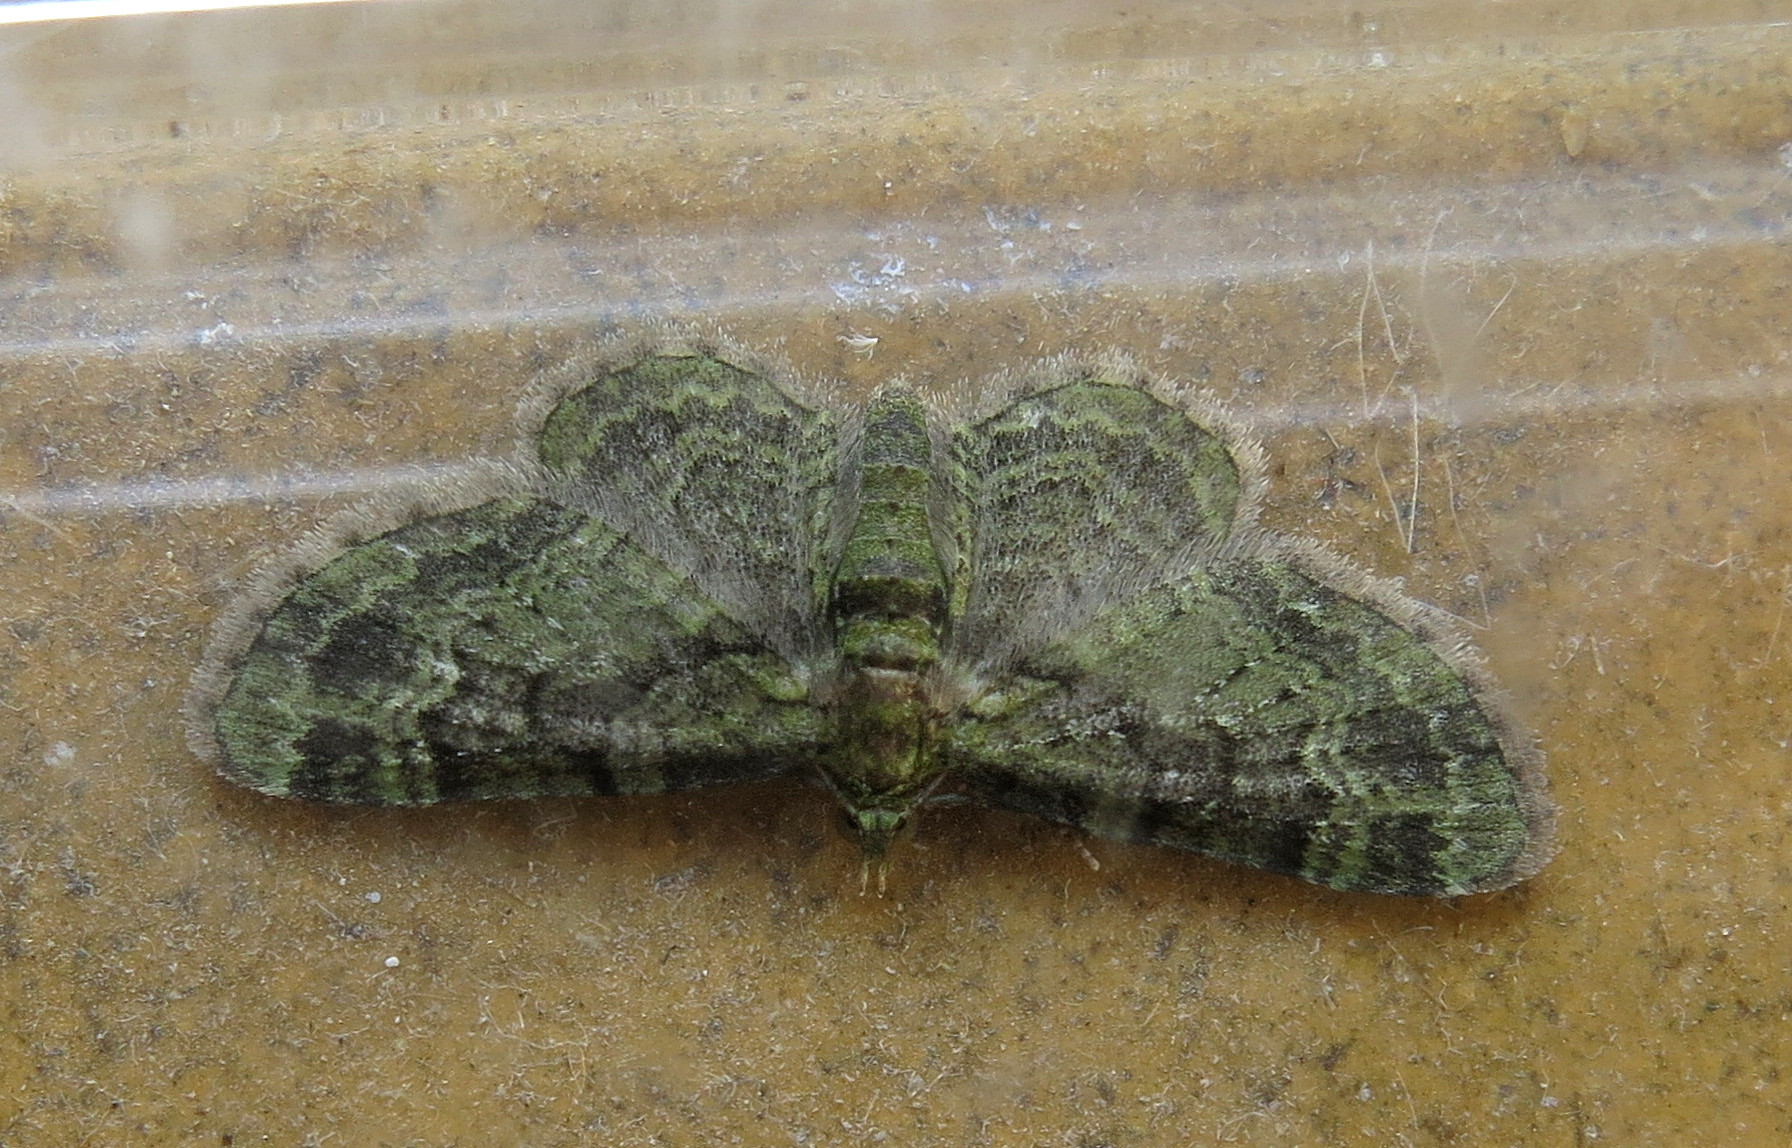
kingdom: Animalia
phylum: Arthropoda
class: Insecta
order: Lepidoptera
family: Geometridae
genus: Pasiphila
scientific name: Pasiphila rectangulata
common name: Green pug
